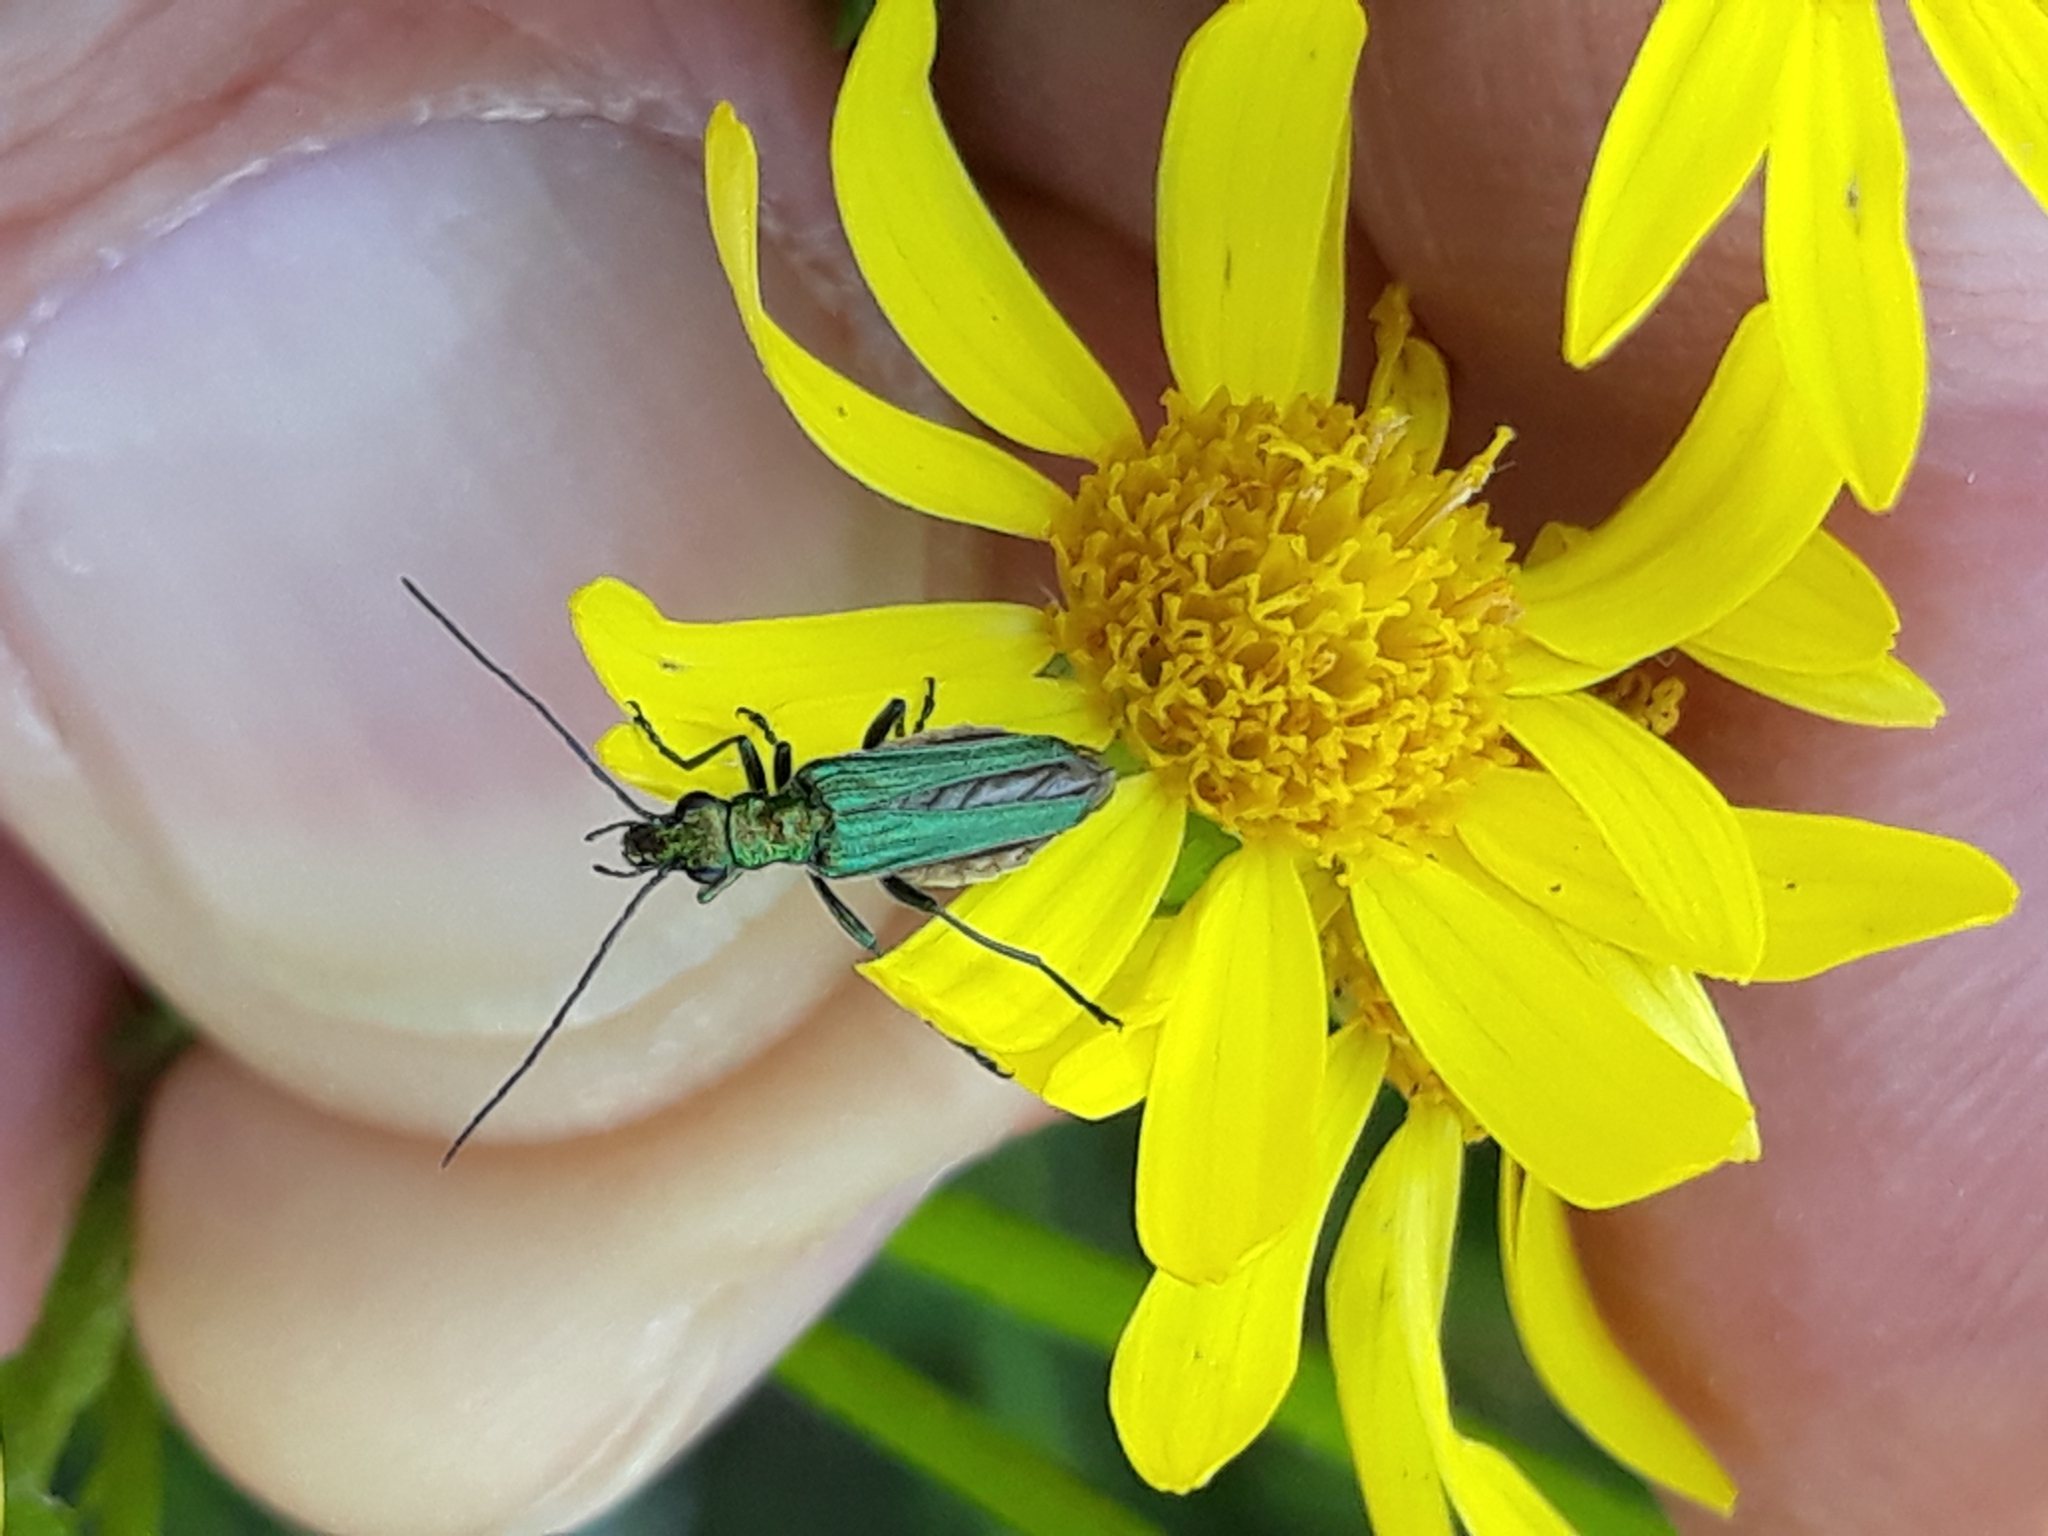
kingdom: Animalia
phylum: Arthropoda
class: Insecta
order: Coleoptera
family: Oedemeridae
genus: Oedemera
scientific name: Oedemera nobilis
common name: Swollen-thighed beetle
